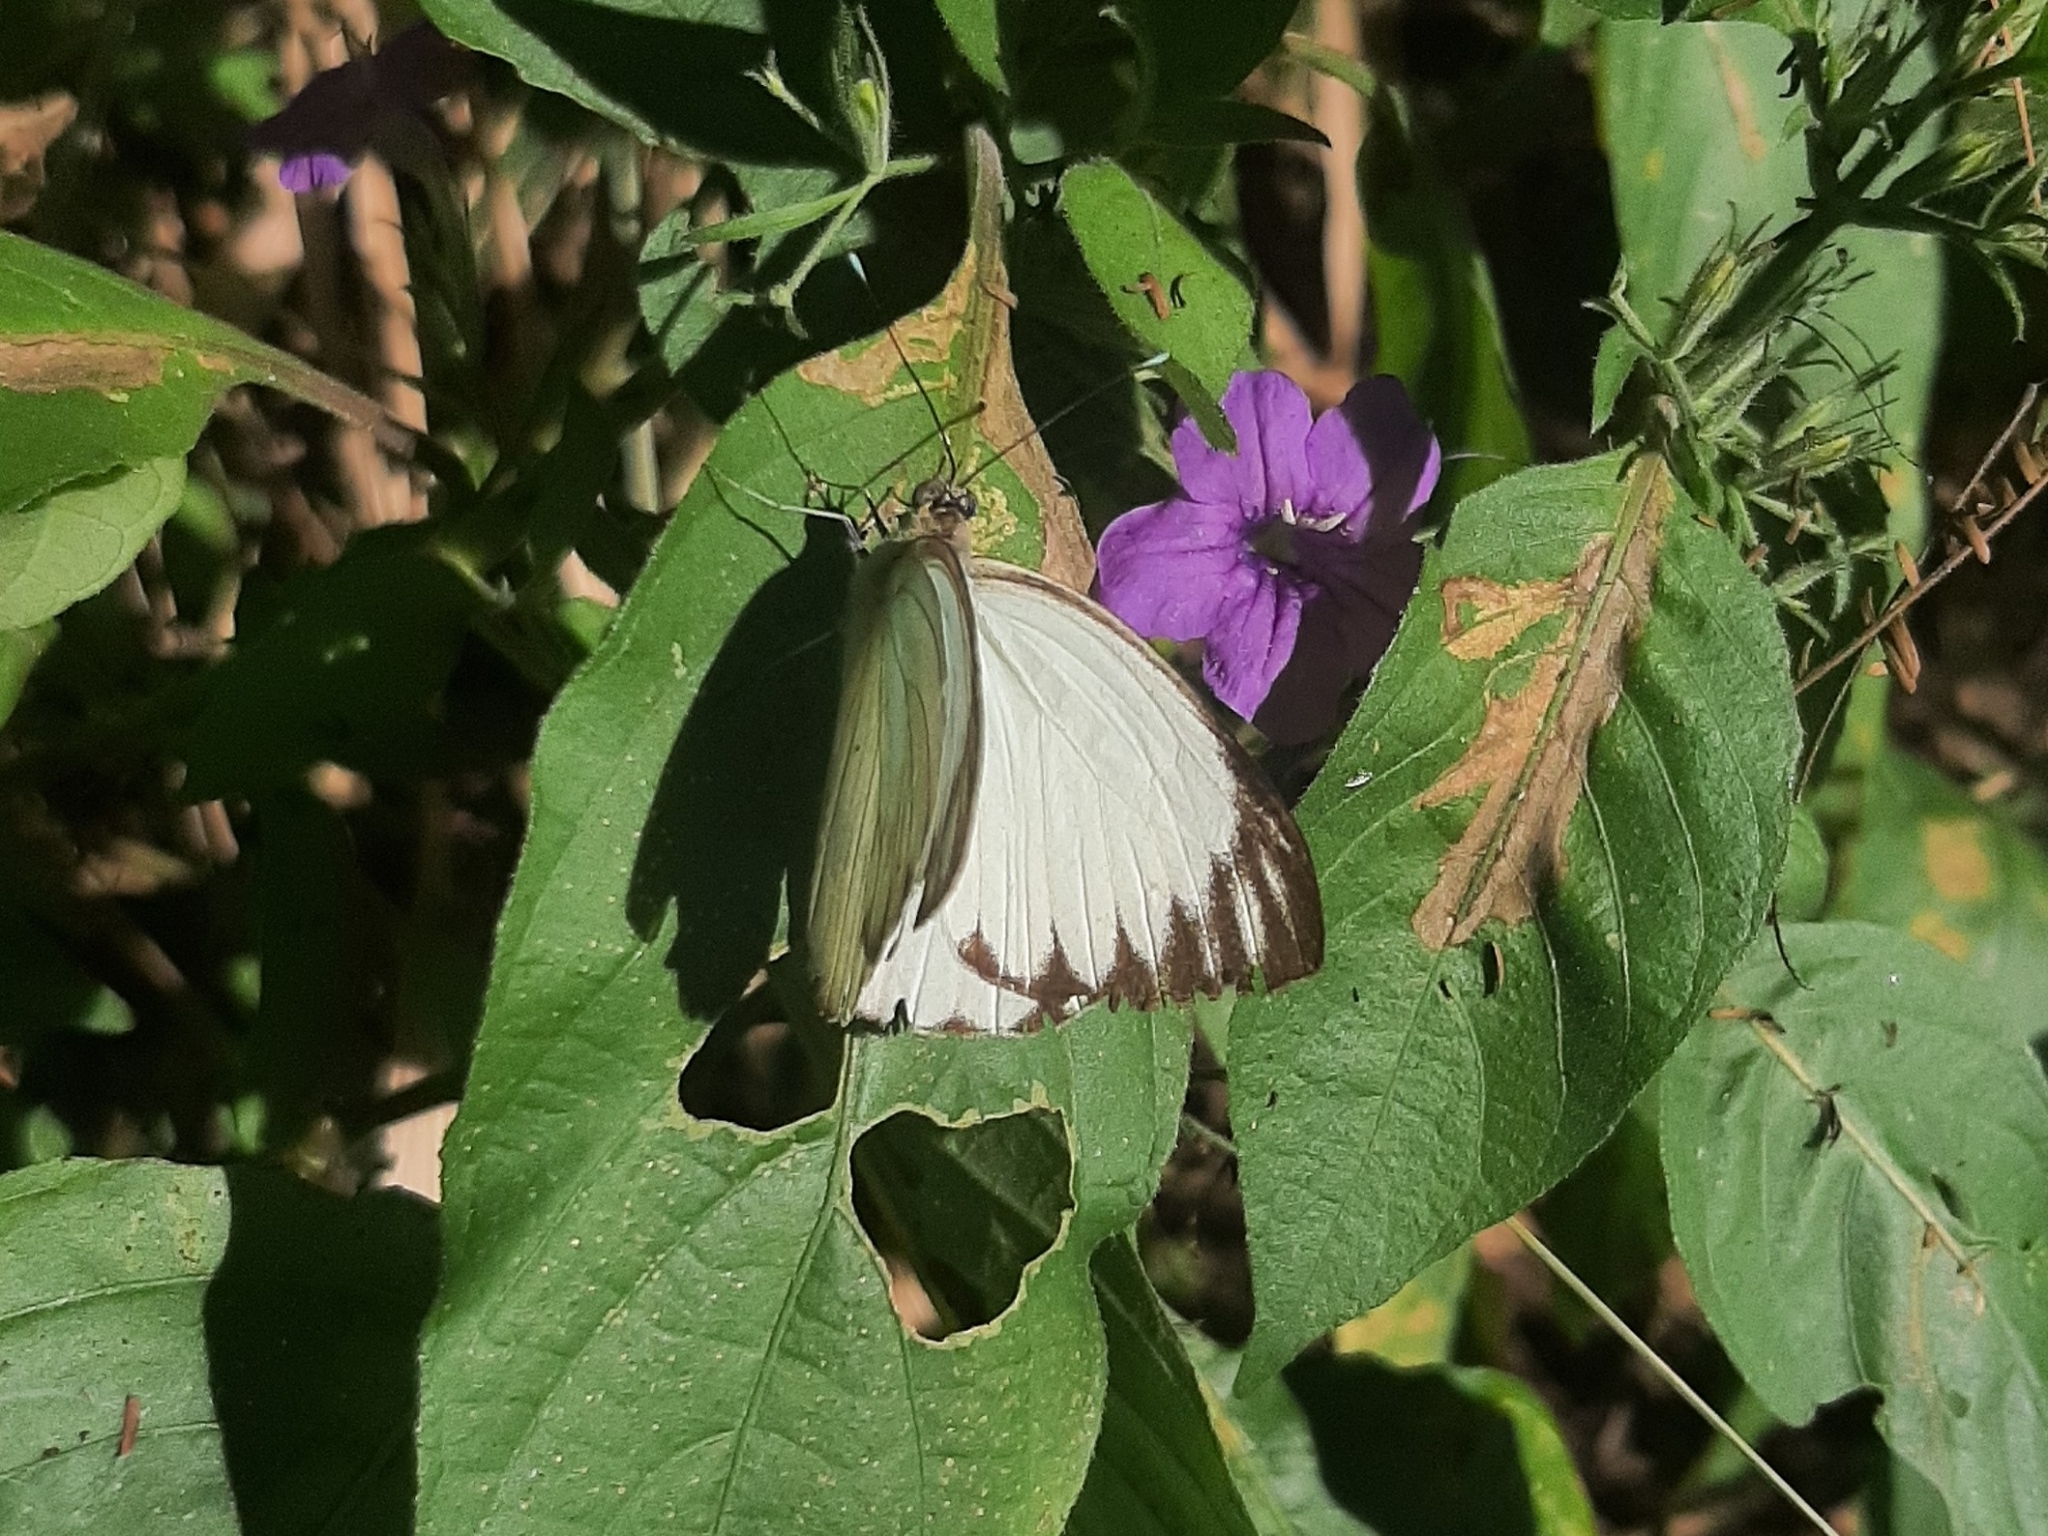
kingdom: Animalia
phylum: Arthropoda
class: Insecta
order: Lepidoptera
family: Pieridae
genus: Ascia
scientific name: Ascia monuste
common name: Great southern white
